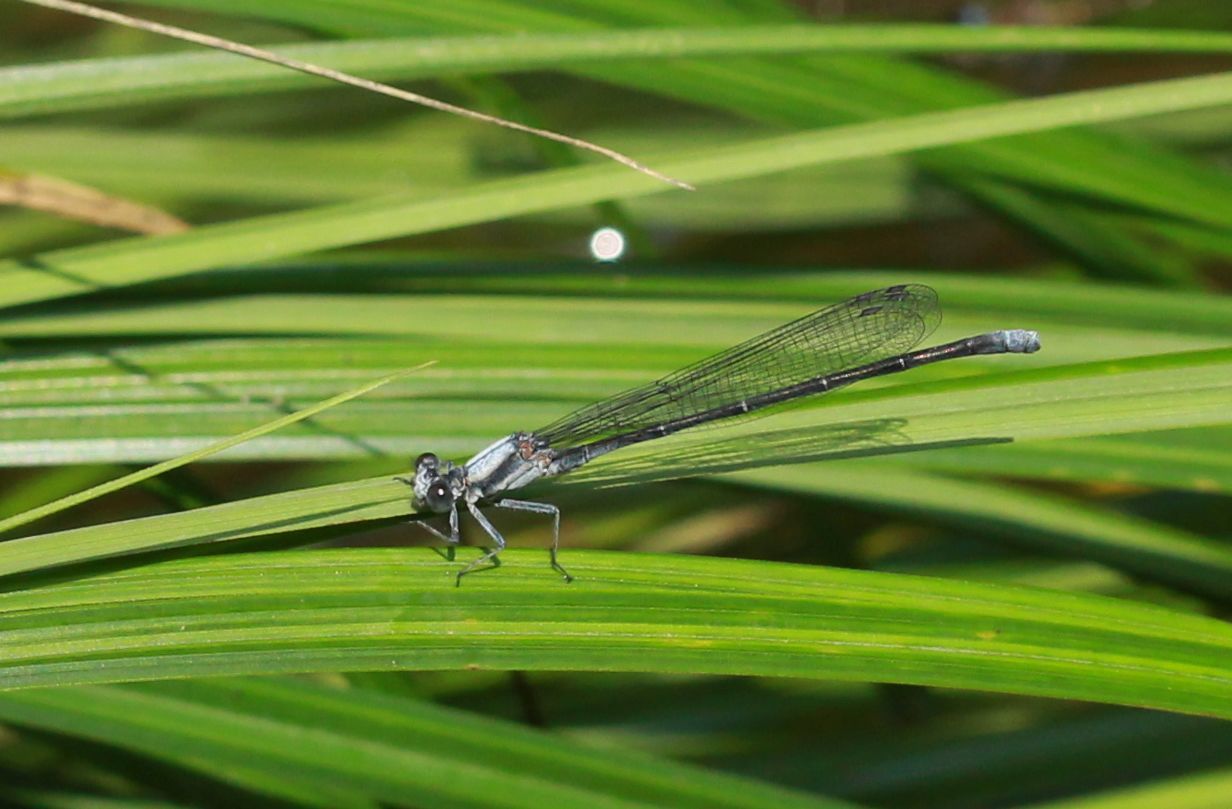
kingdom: Animalia
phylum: Arthropoda
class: Insecta
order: Odonata
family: Coenagrionidae
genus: Argia
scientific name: Argia moesta
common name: Powdered dancer
